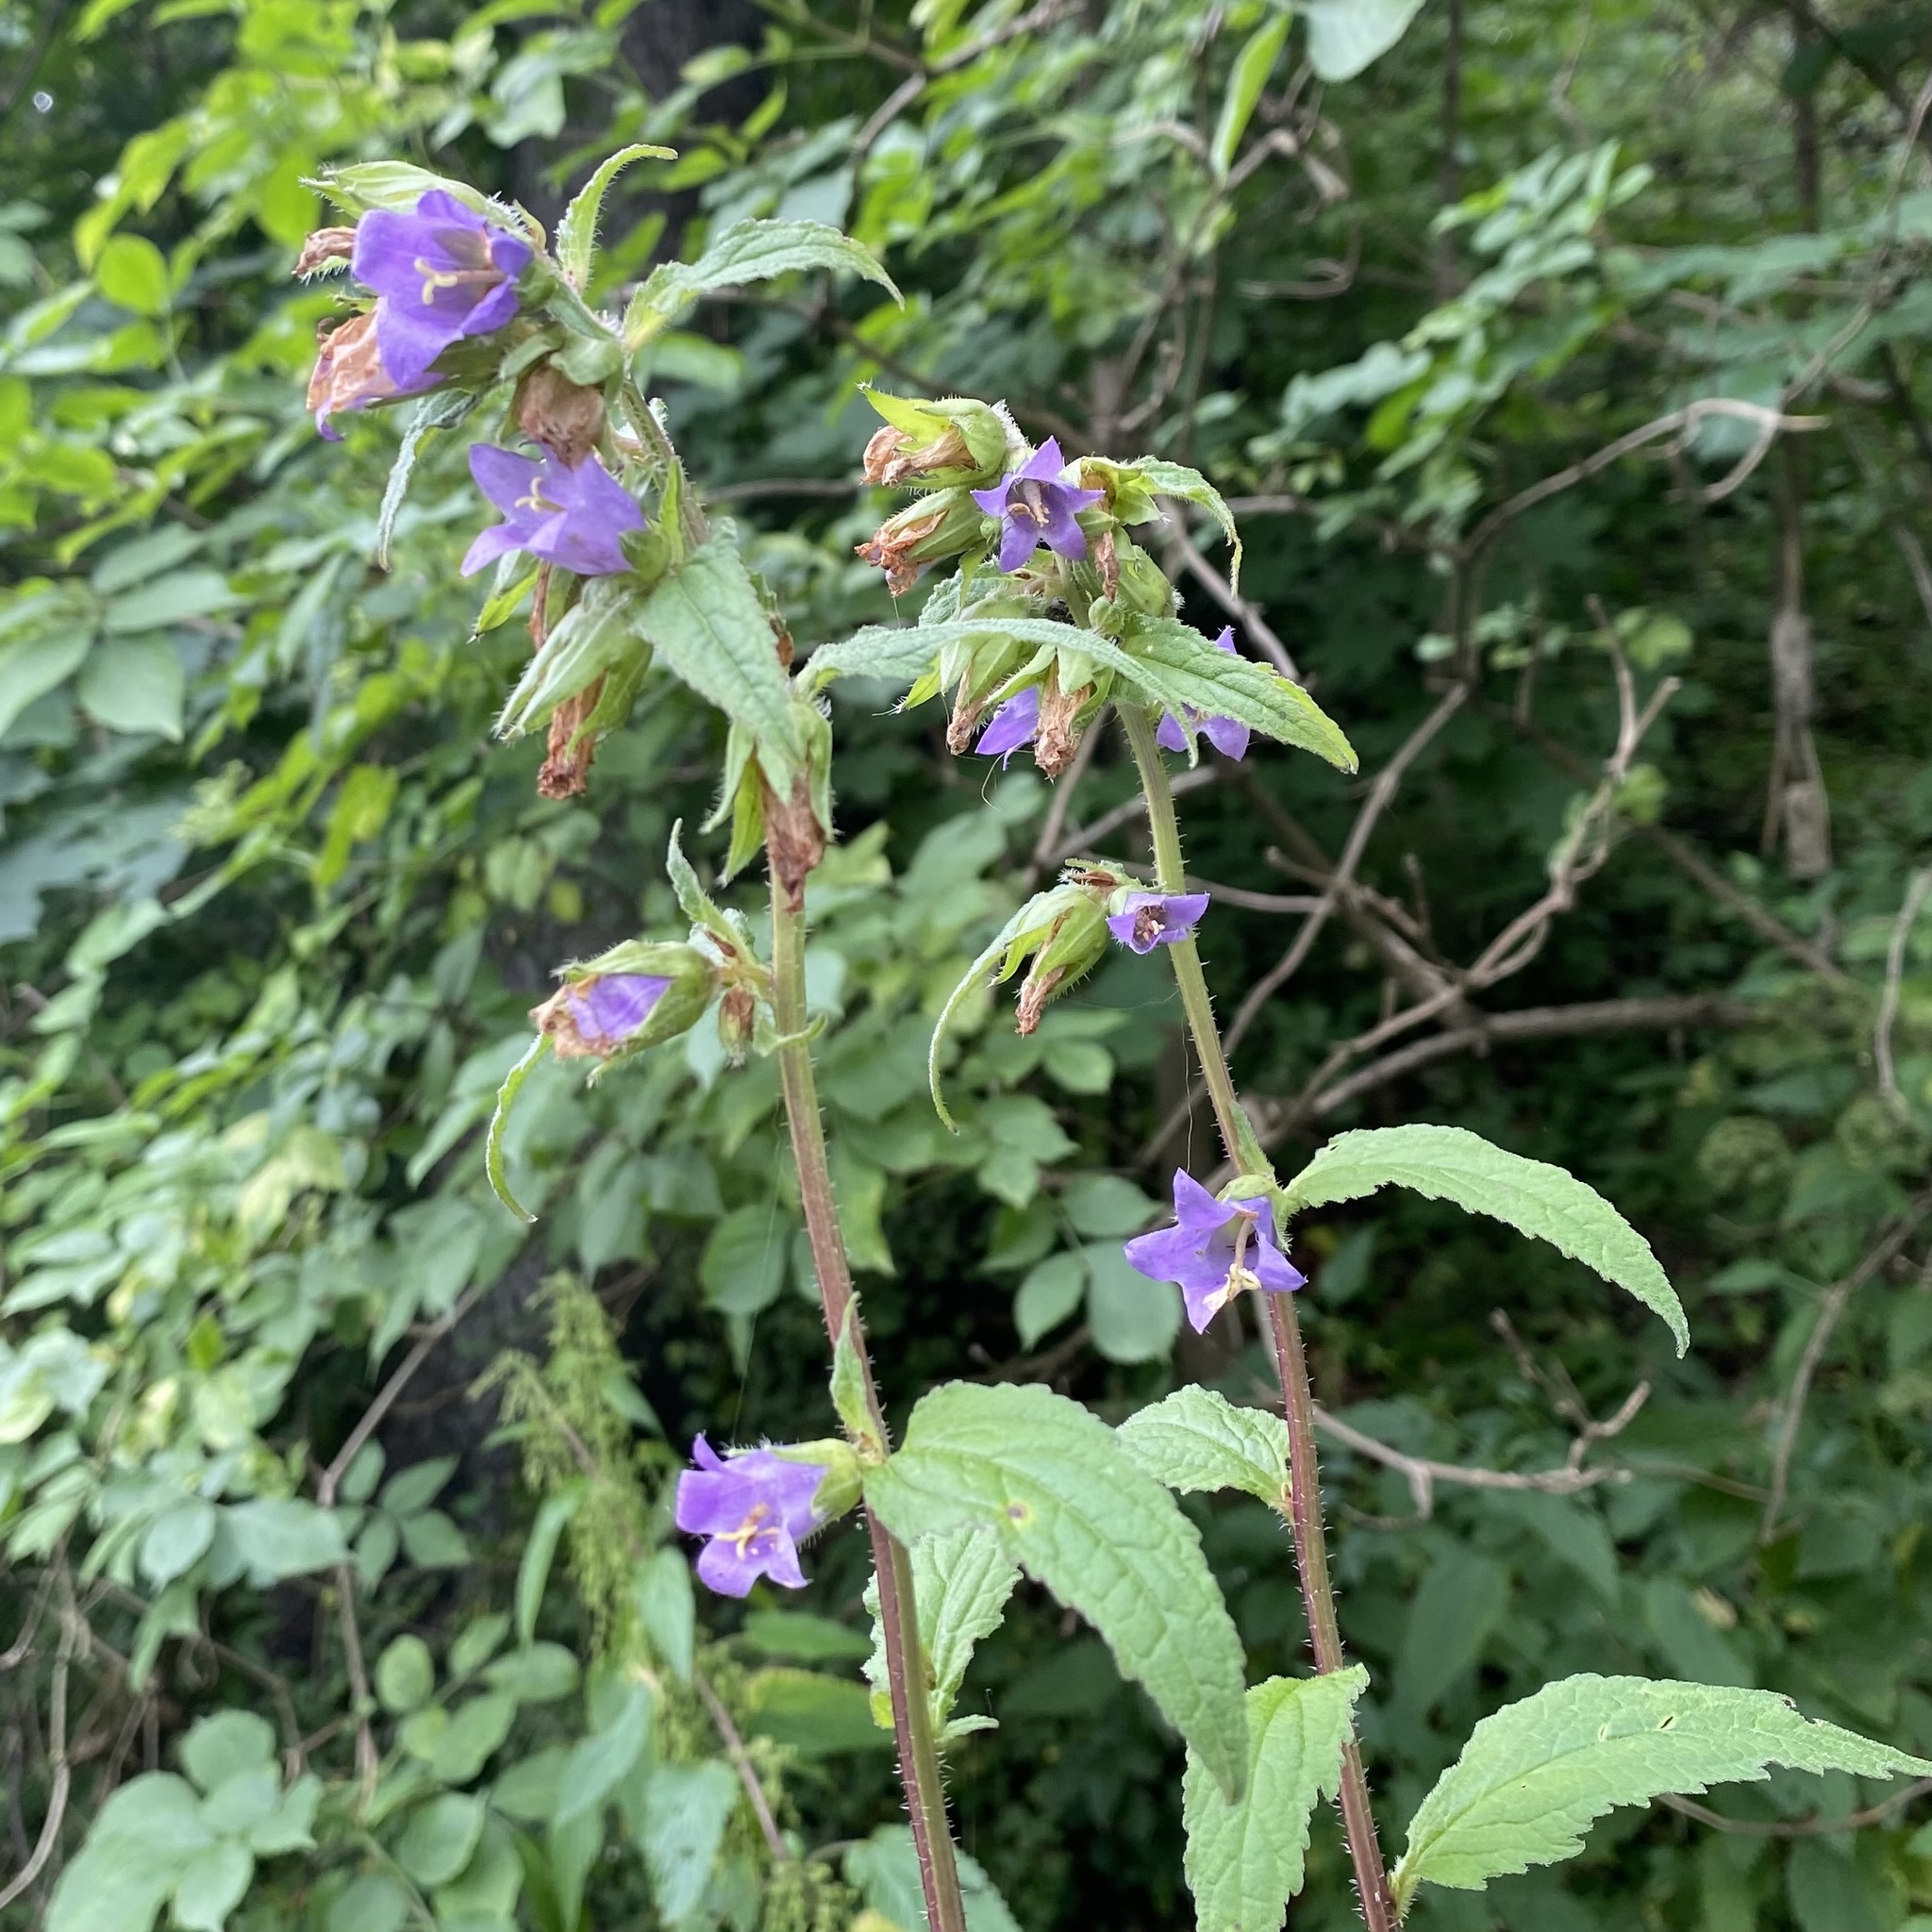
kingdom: Plantae
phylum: Tracheophyta
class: Magnoliopsida
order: Asterales
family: Campanulaceae
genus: Campanula
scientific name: Campanula trachelium
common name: Nettle-leaved bellflower
